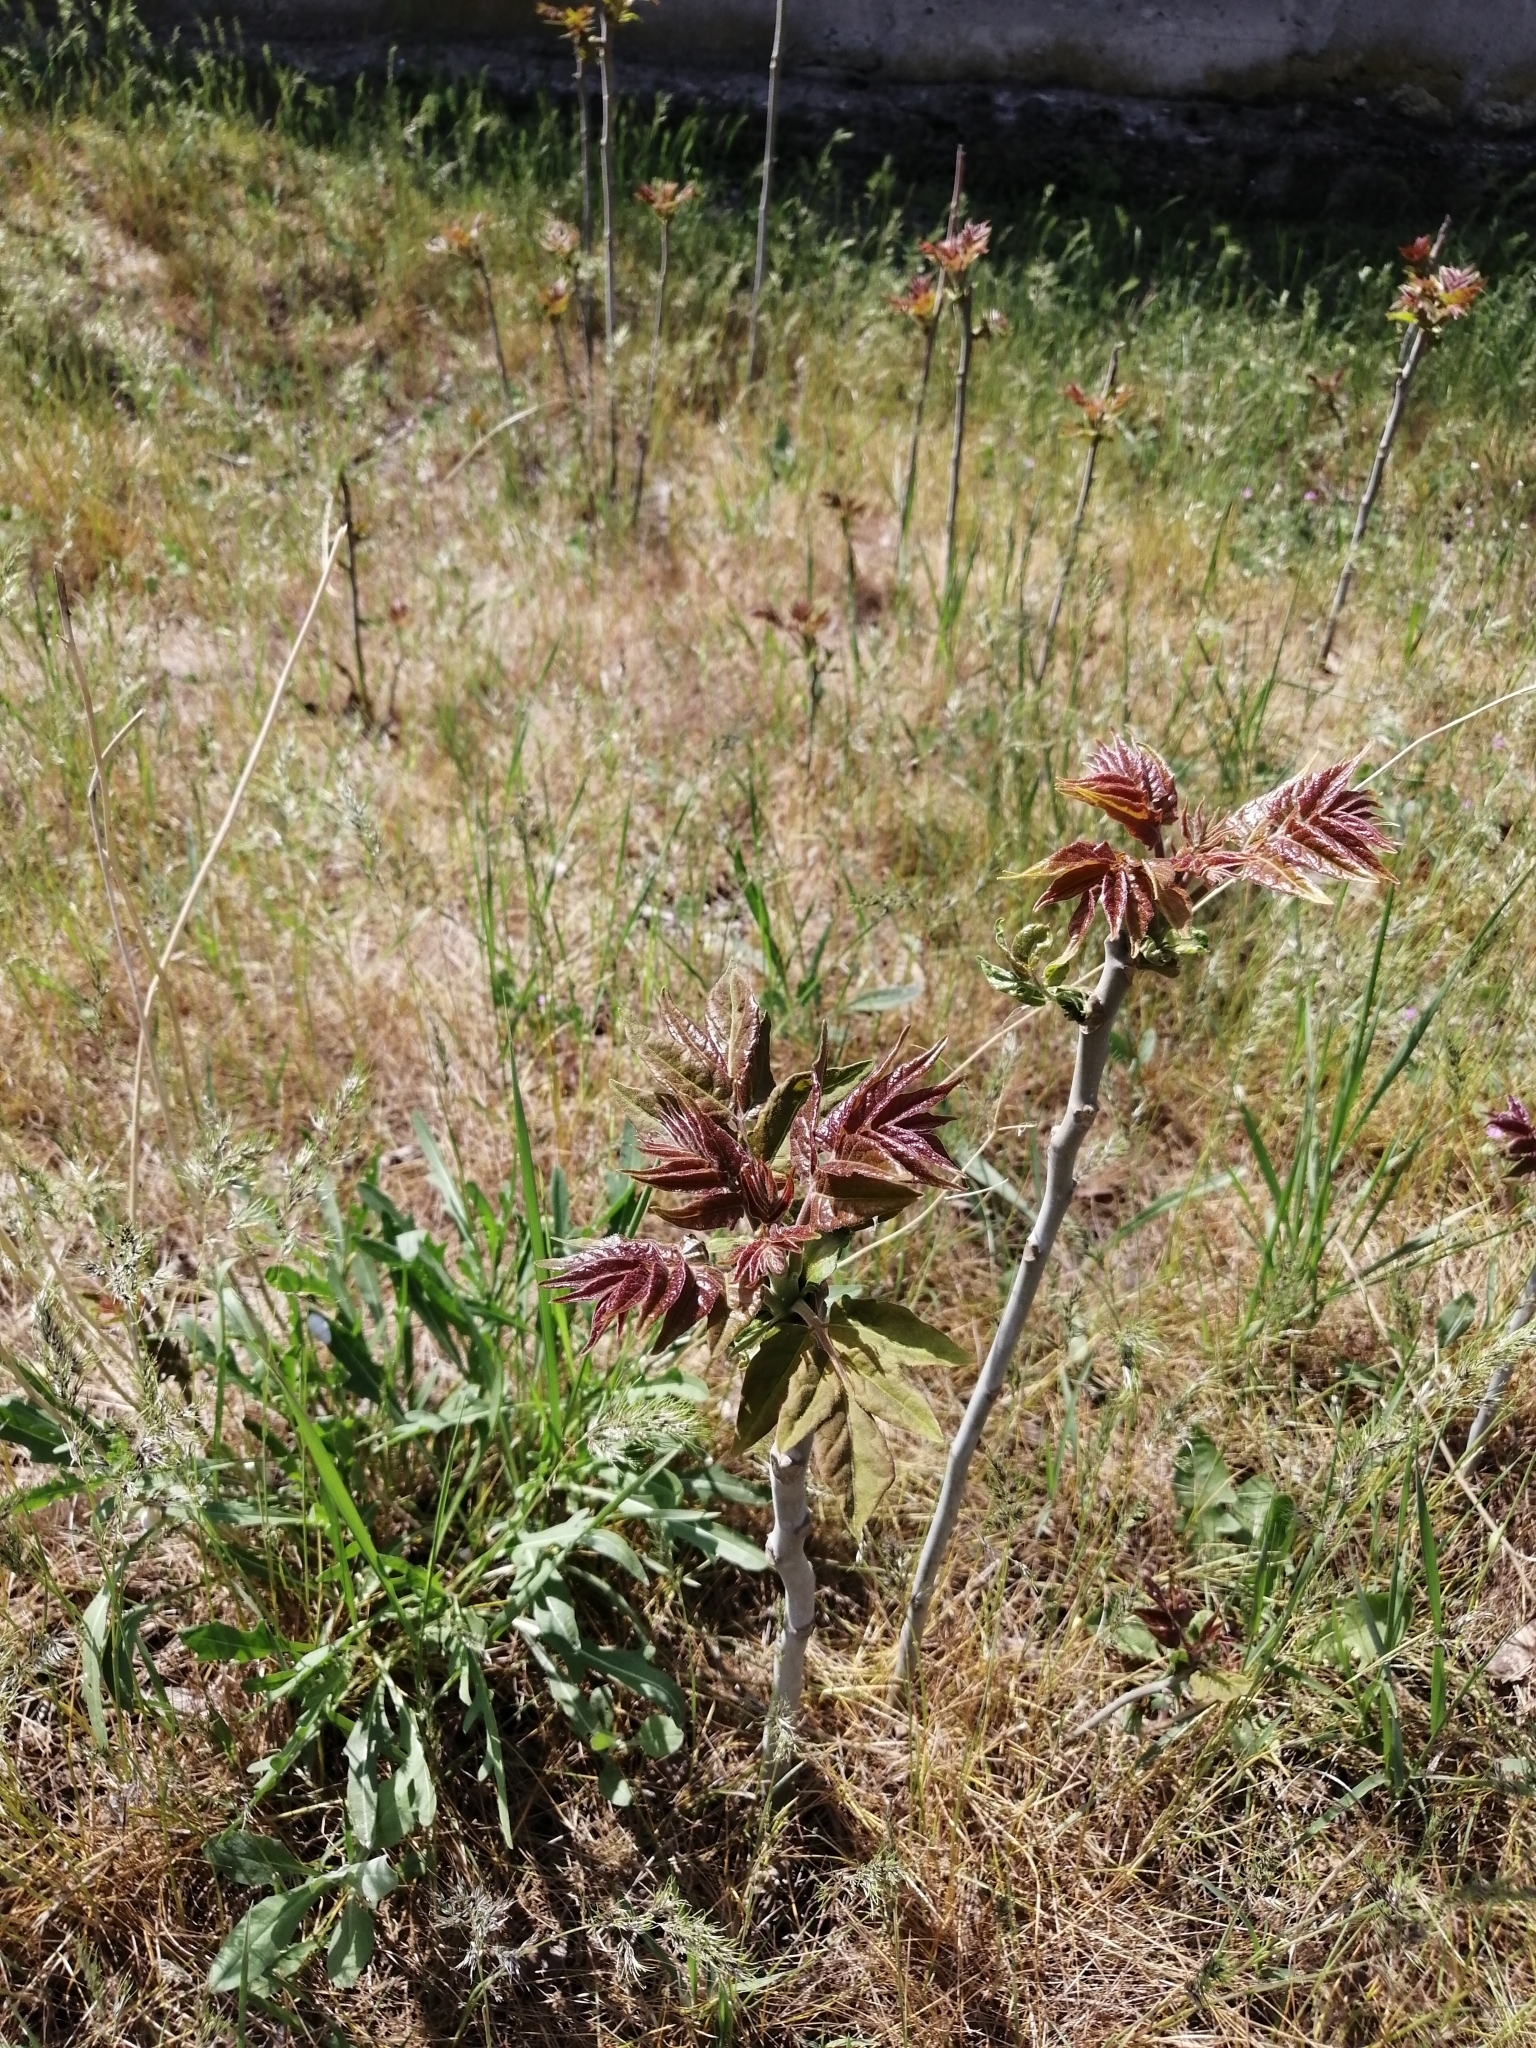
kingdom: Plantae
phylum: Tracheophyta
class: Magnoliopsida
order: Sapindales
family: Simaroubaceae
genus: Ailanthus
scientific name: Ailanthus altissima
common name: Tree-of-heaven
